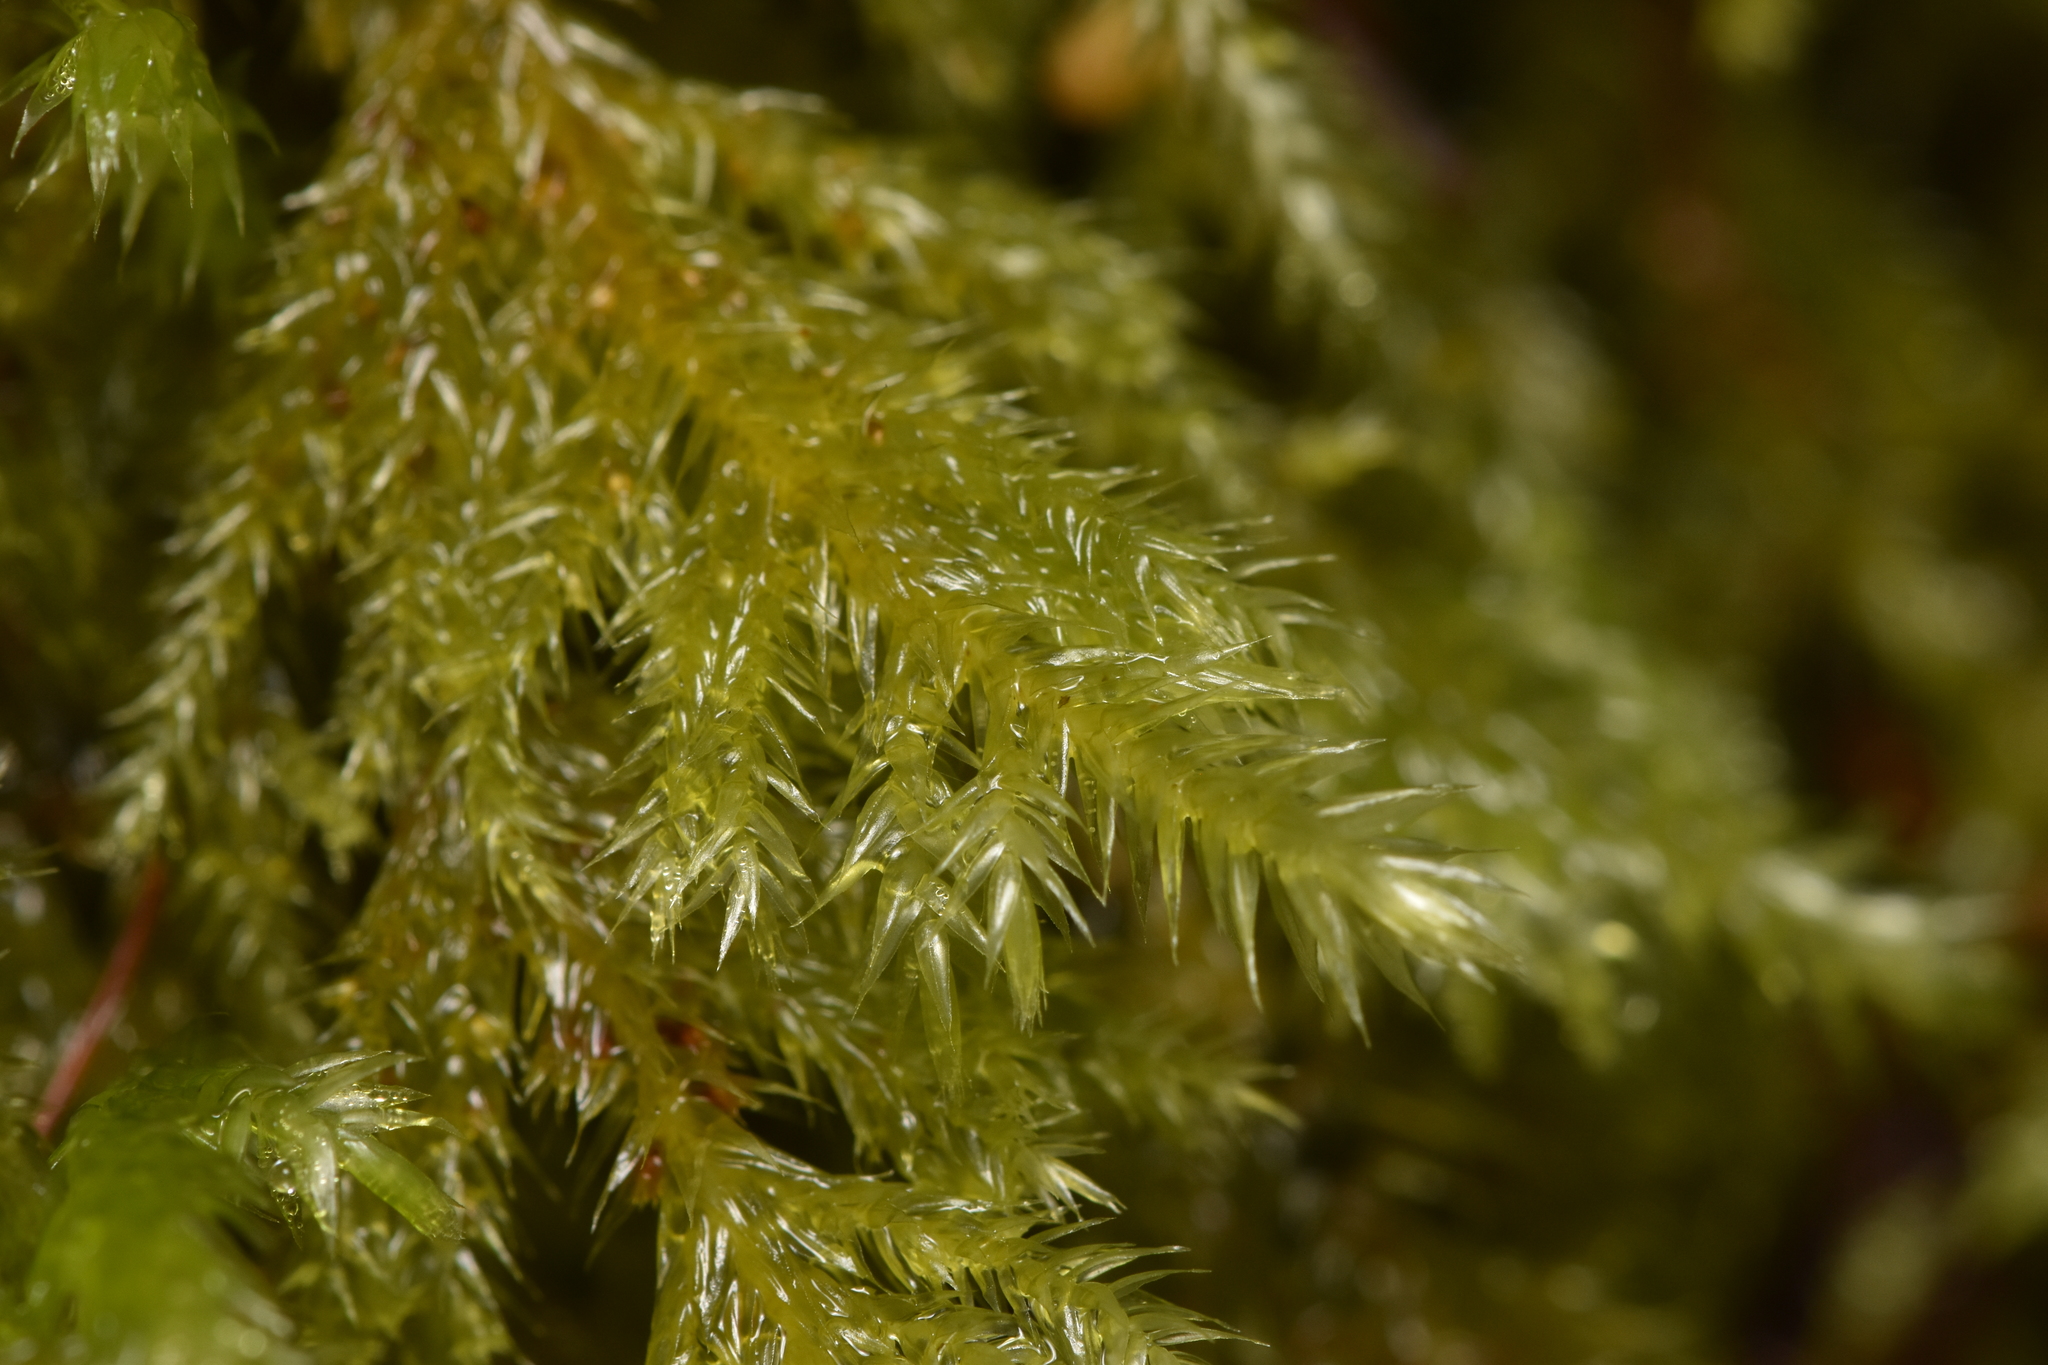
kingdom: Plantae
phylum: Bryophyta
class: Bryopsida
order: Hypnales
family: Lembophyllaceae
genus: Pseudisothecium
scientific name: Pseudisothecium stoloniferum
